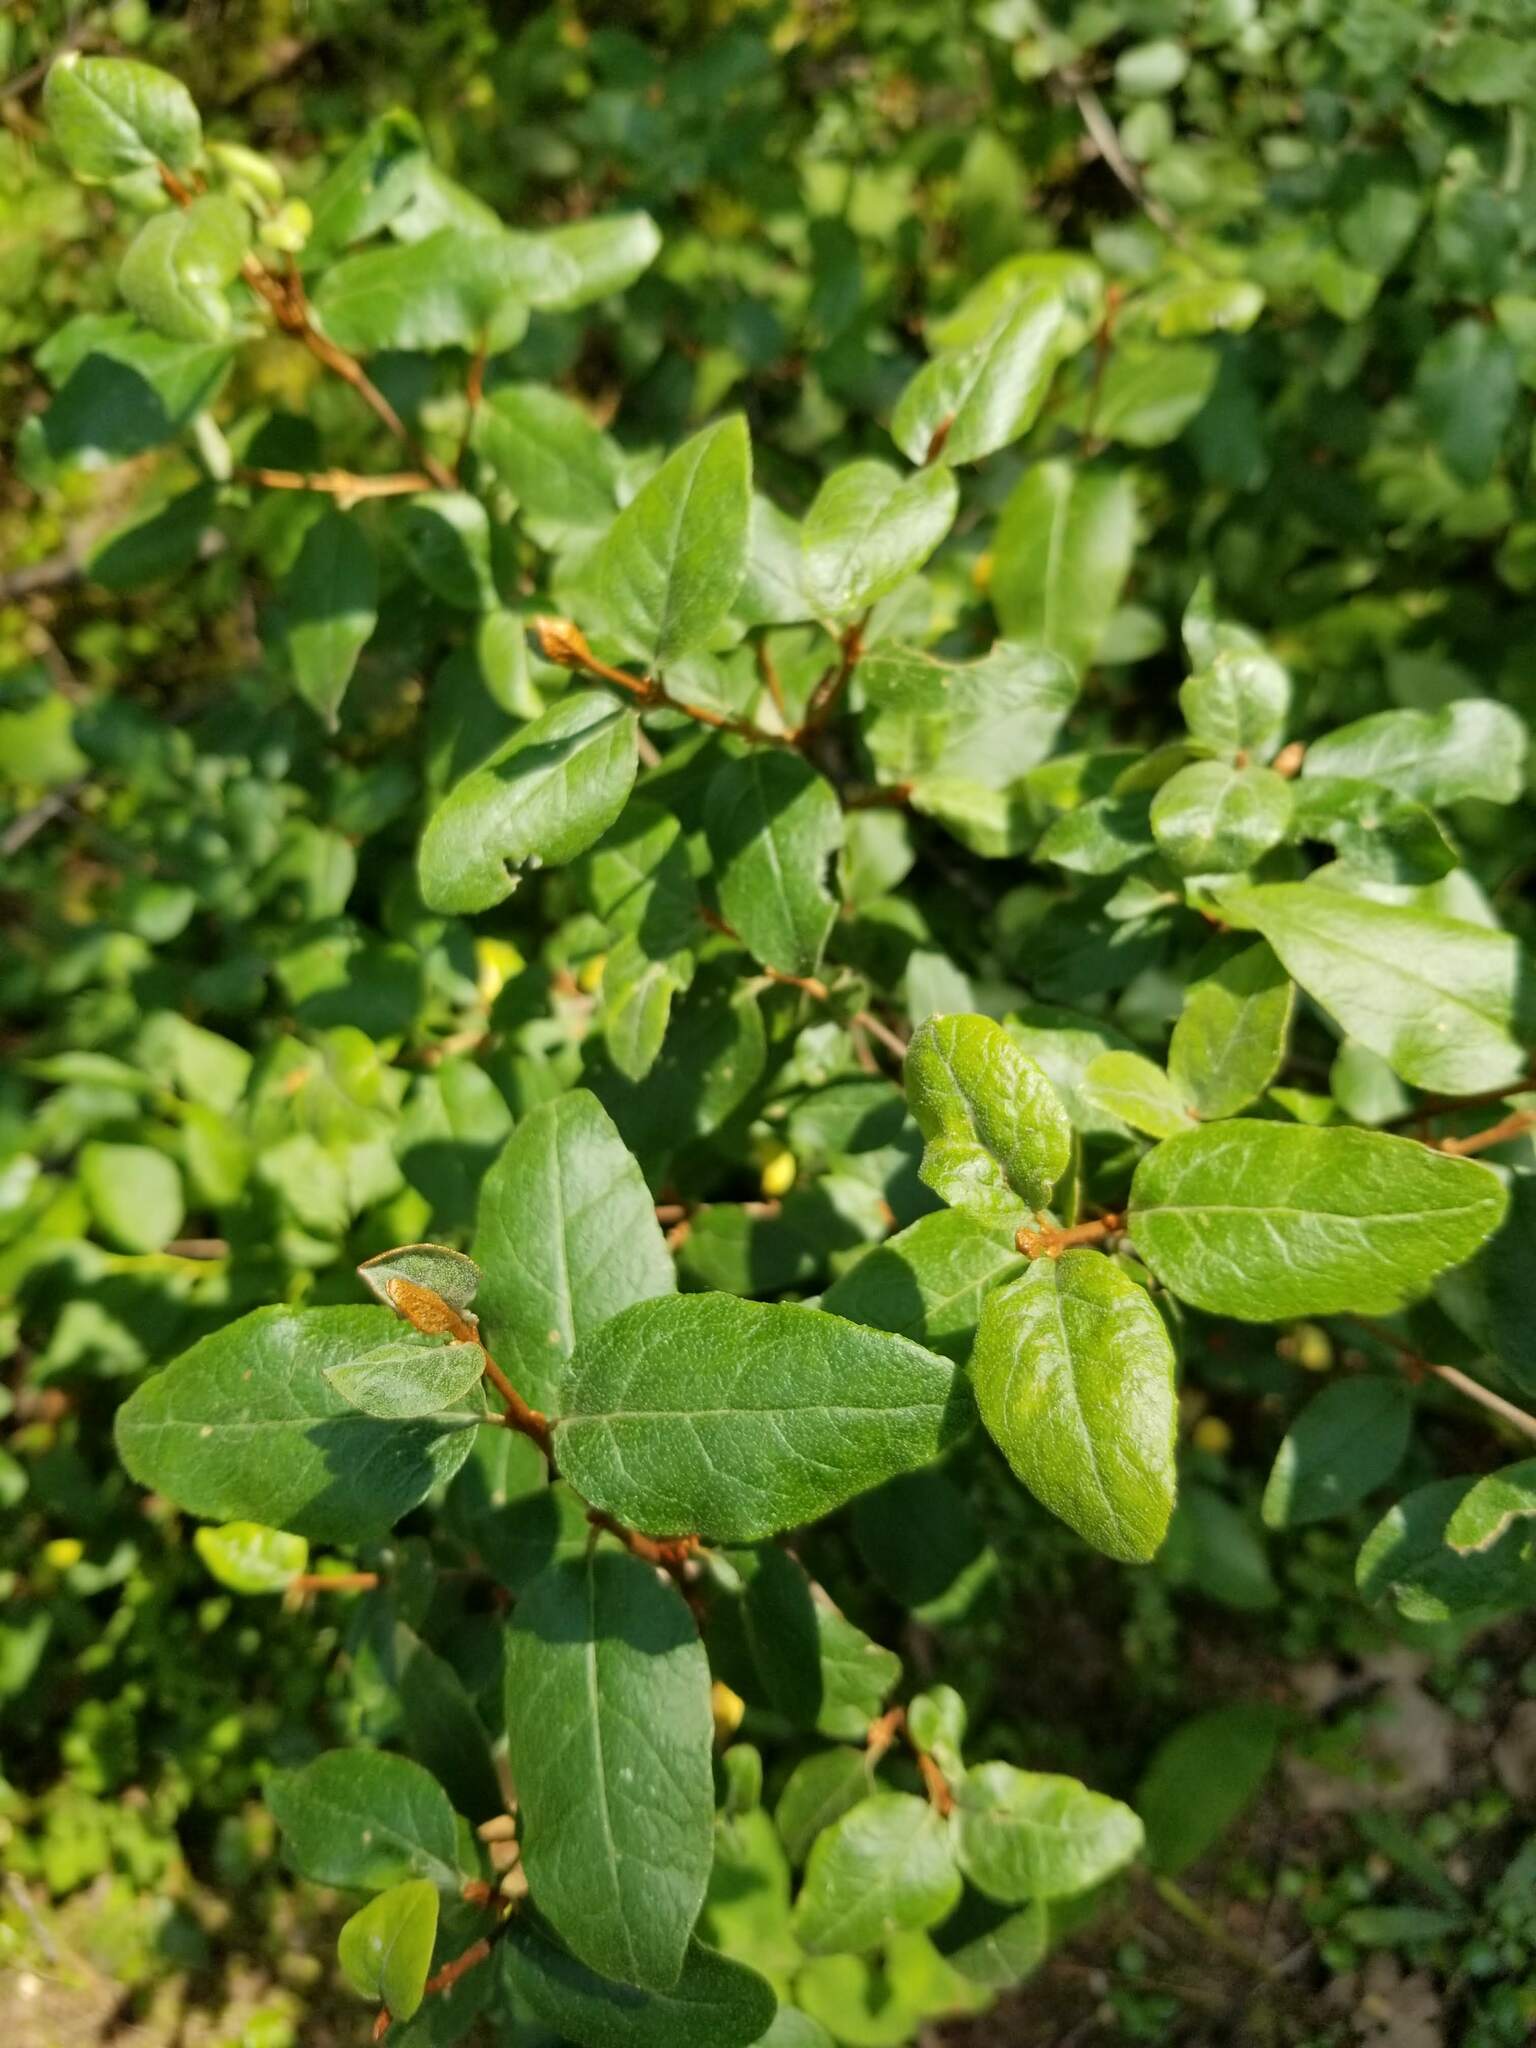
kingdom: Plantae
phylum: Tracheophyta
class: Magnoliopsida
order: Rosales
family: Elaeagnaceae
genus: Shepherdia
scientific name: Shepherdia canadensis
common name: Soapberry
